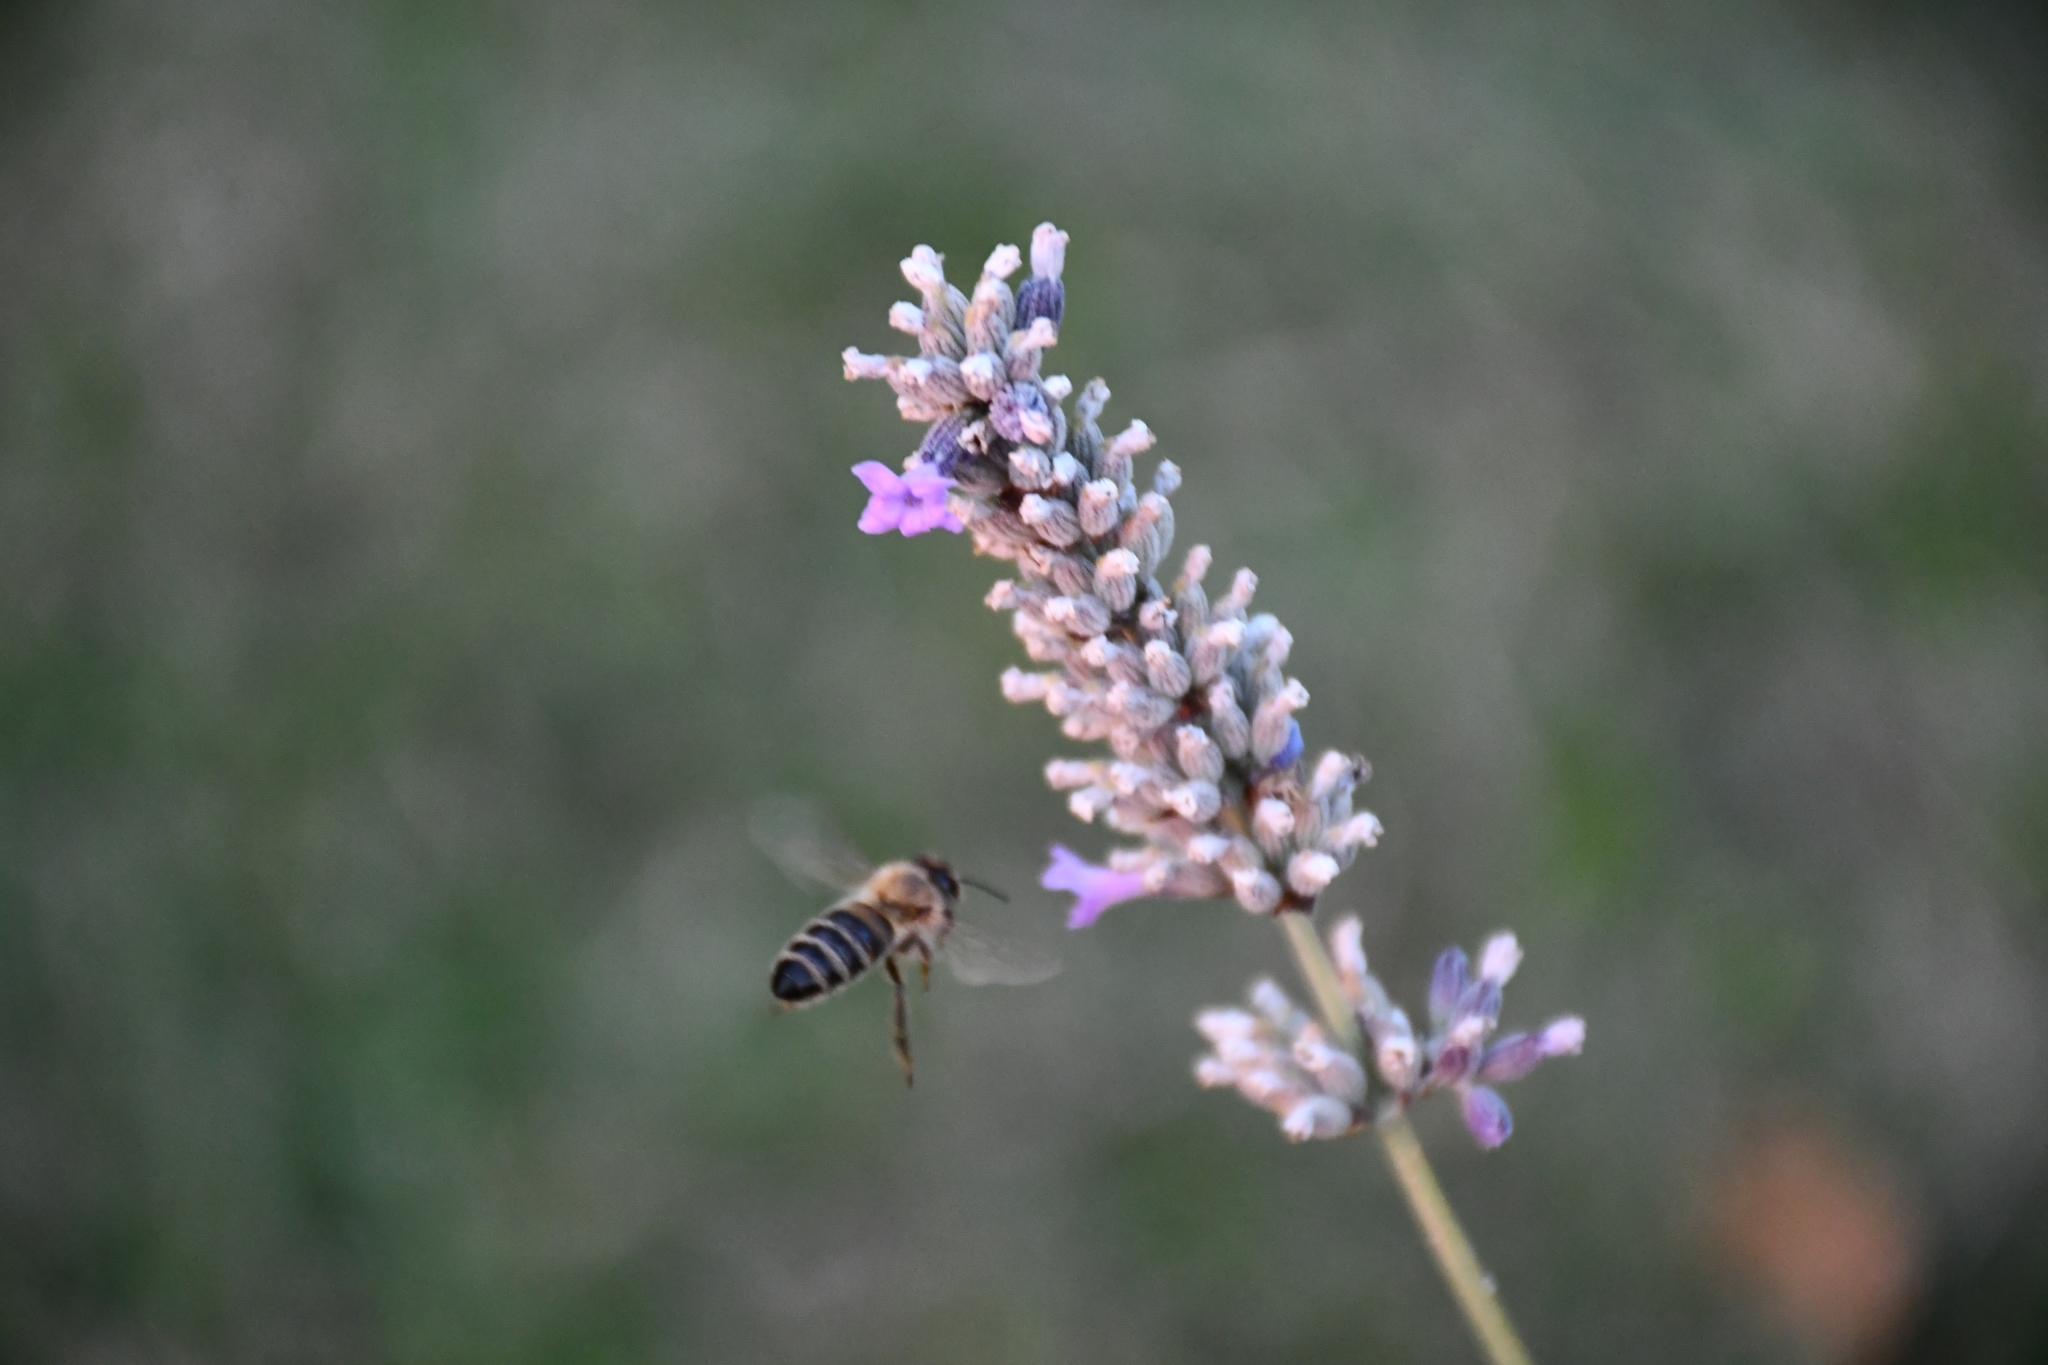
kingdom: Animalia
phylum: Arthropoda
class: Insecta
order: Hymenoptera
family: Apidae
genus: Apis
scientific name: Apis mellifera
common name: Honey bee
